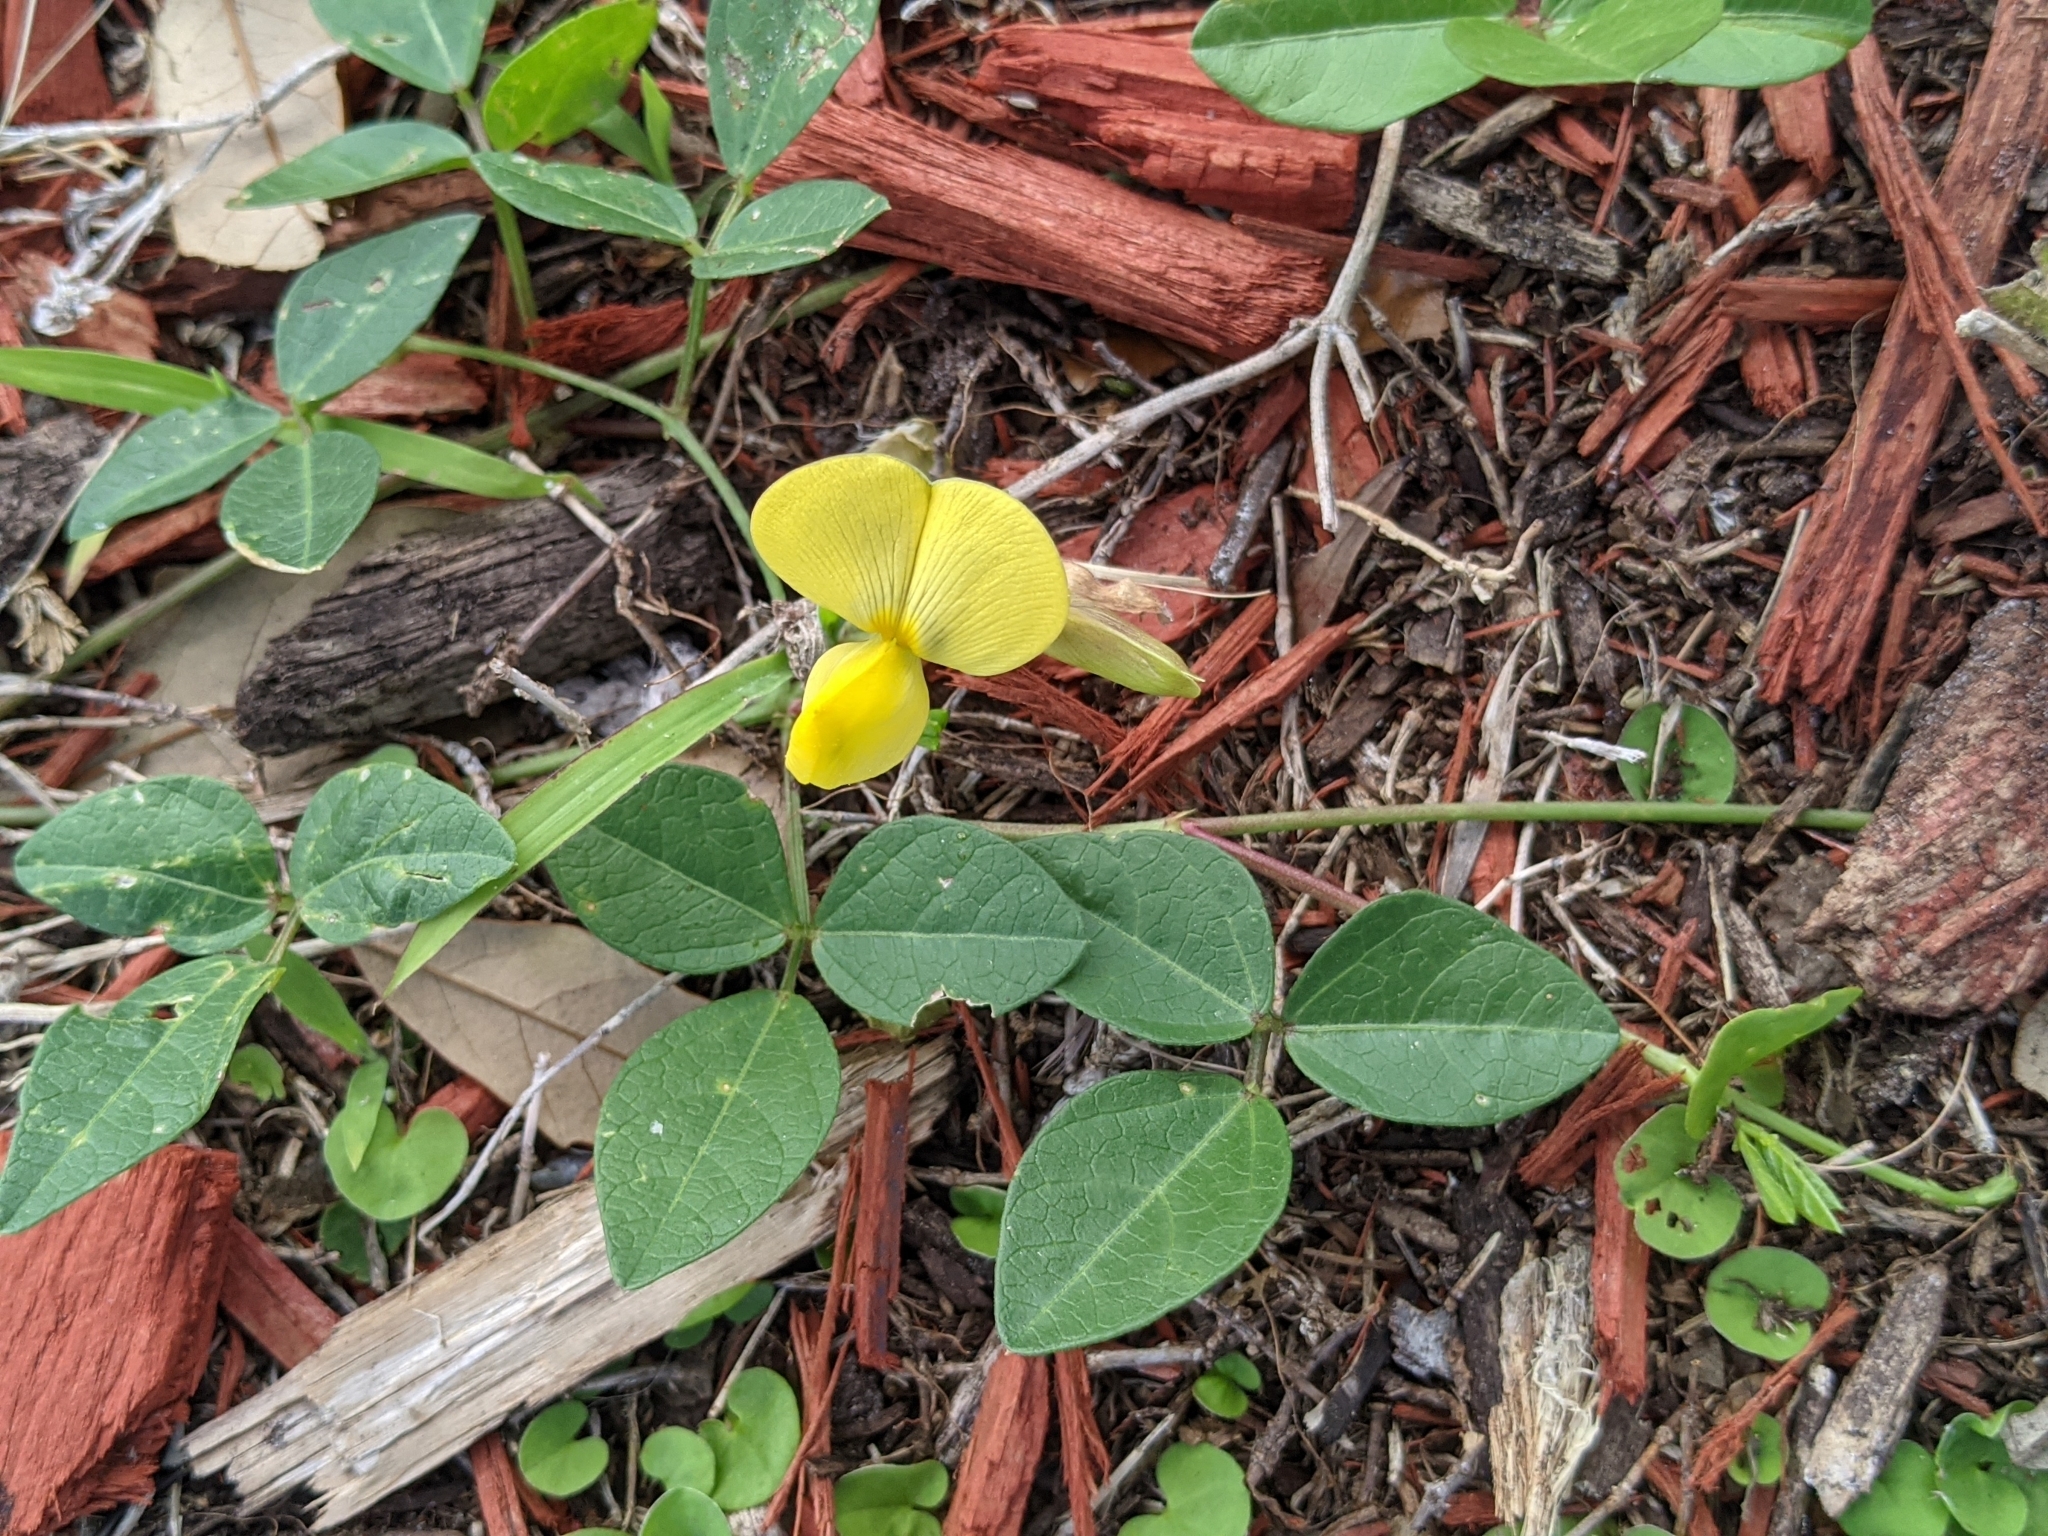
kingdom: Plantae
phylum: Tracheophyta
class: Magnoliopsida
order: Fabales
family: Fabaceae
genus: Vigna
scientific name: Vigna luteola
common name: Hairypod cowpea
